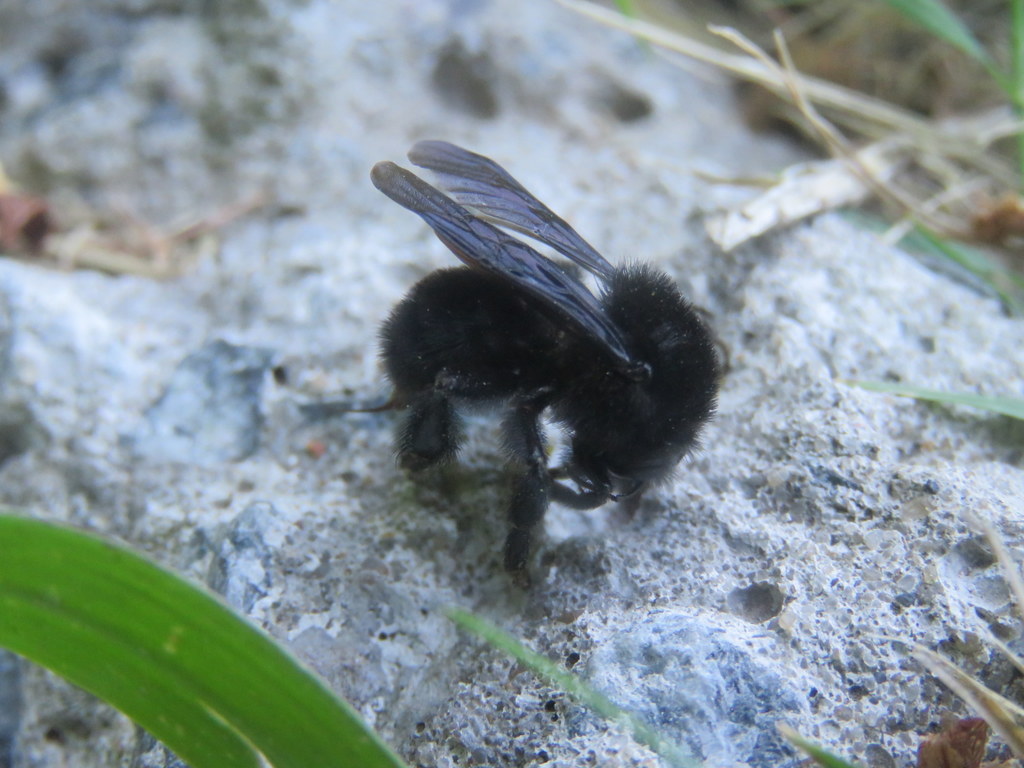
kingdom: Animalia
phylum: Arthropoda
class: Insecta
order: Hymenoptera
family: Apidae
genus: Bombus
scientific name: Bombus pauloensis
